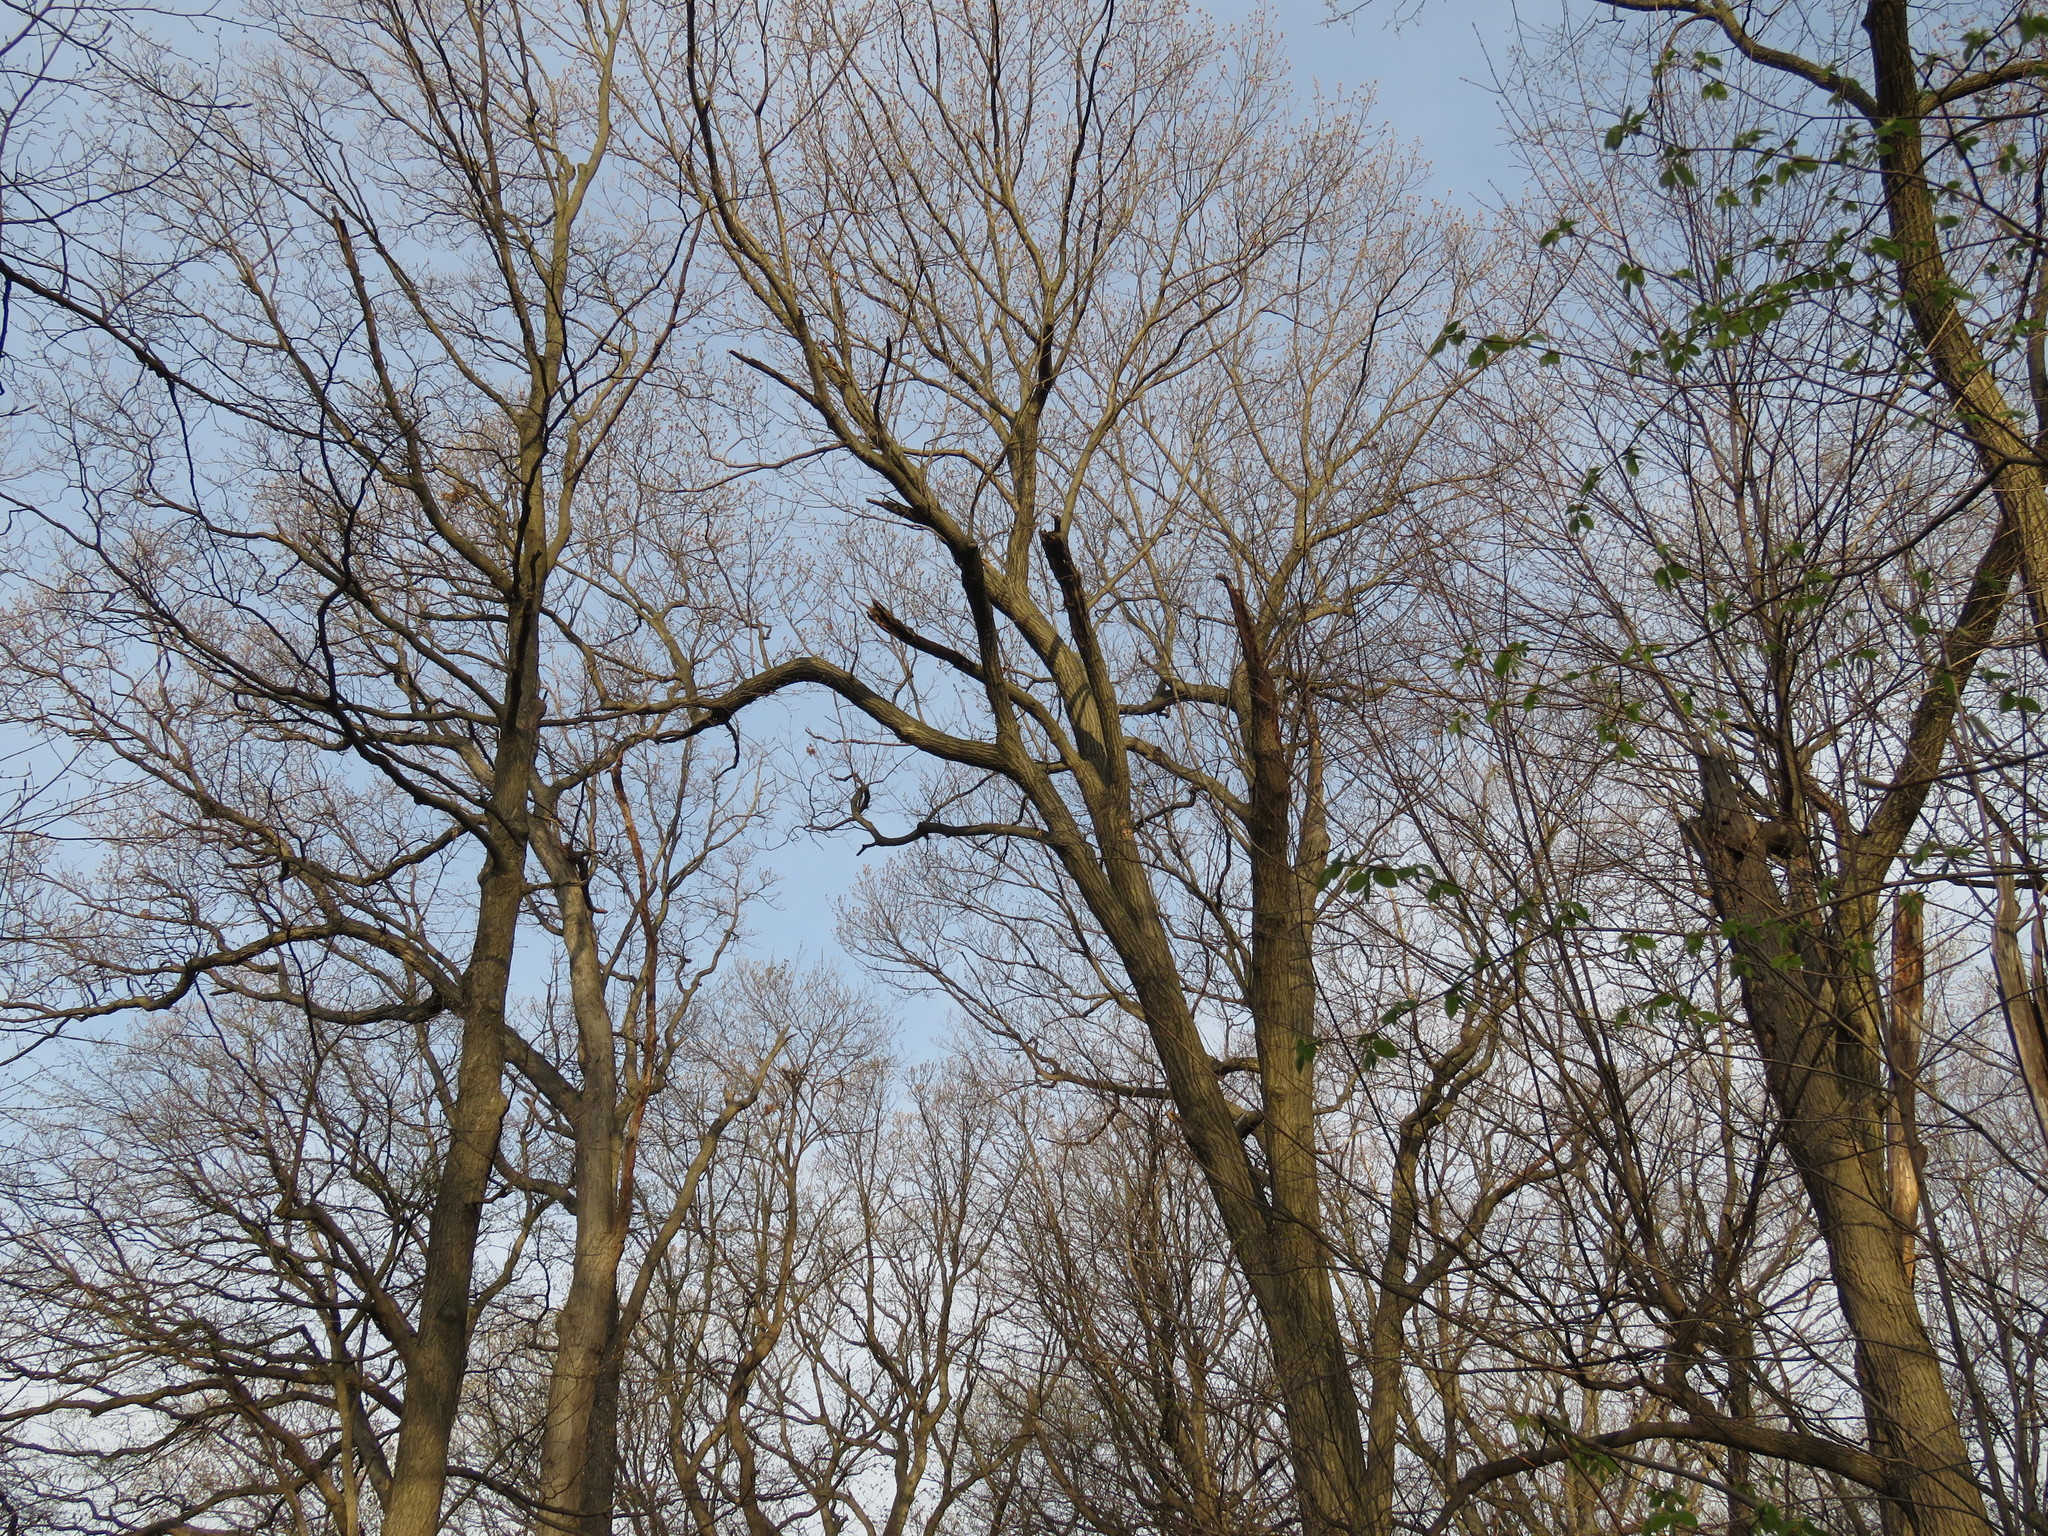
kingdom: Animalia
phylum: Chordata
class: Aves
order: Anseriformes
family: Anatidae
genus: Aix
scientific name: Aix sponsa
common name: Wood duck
